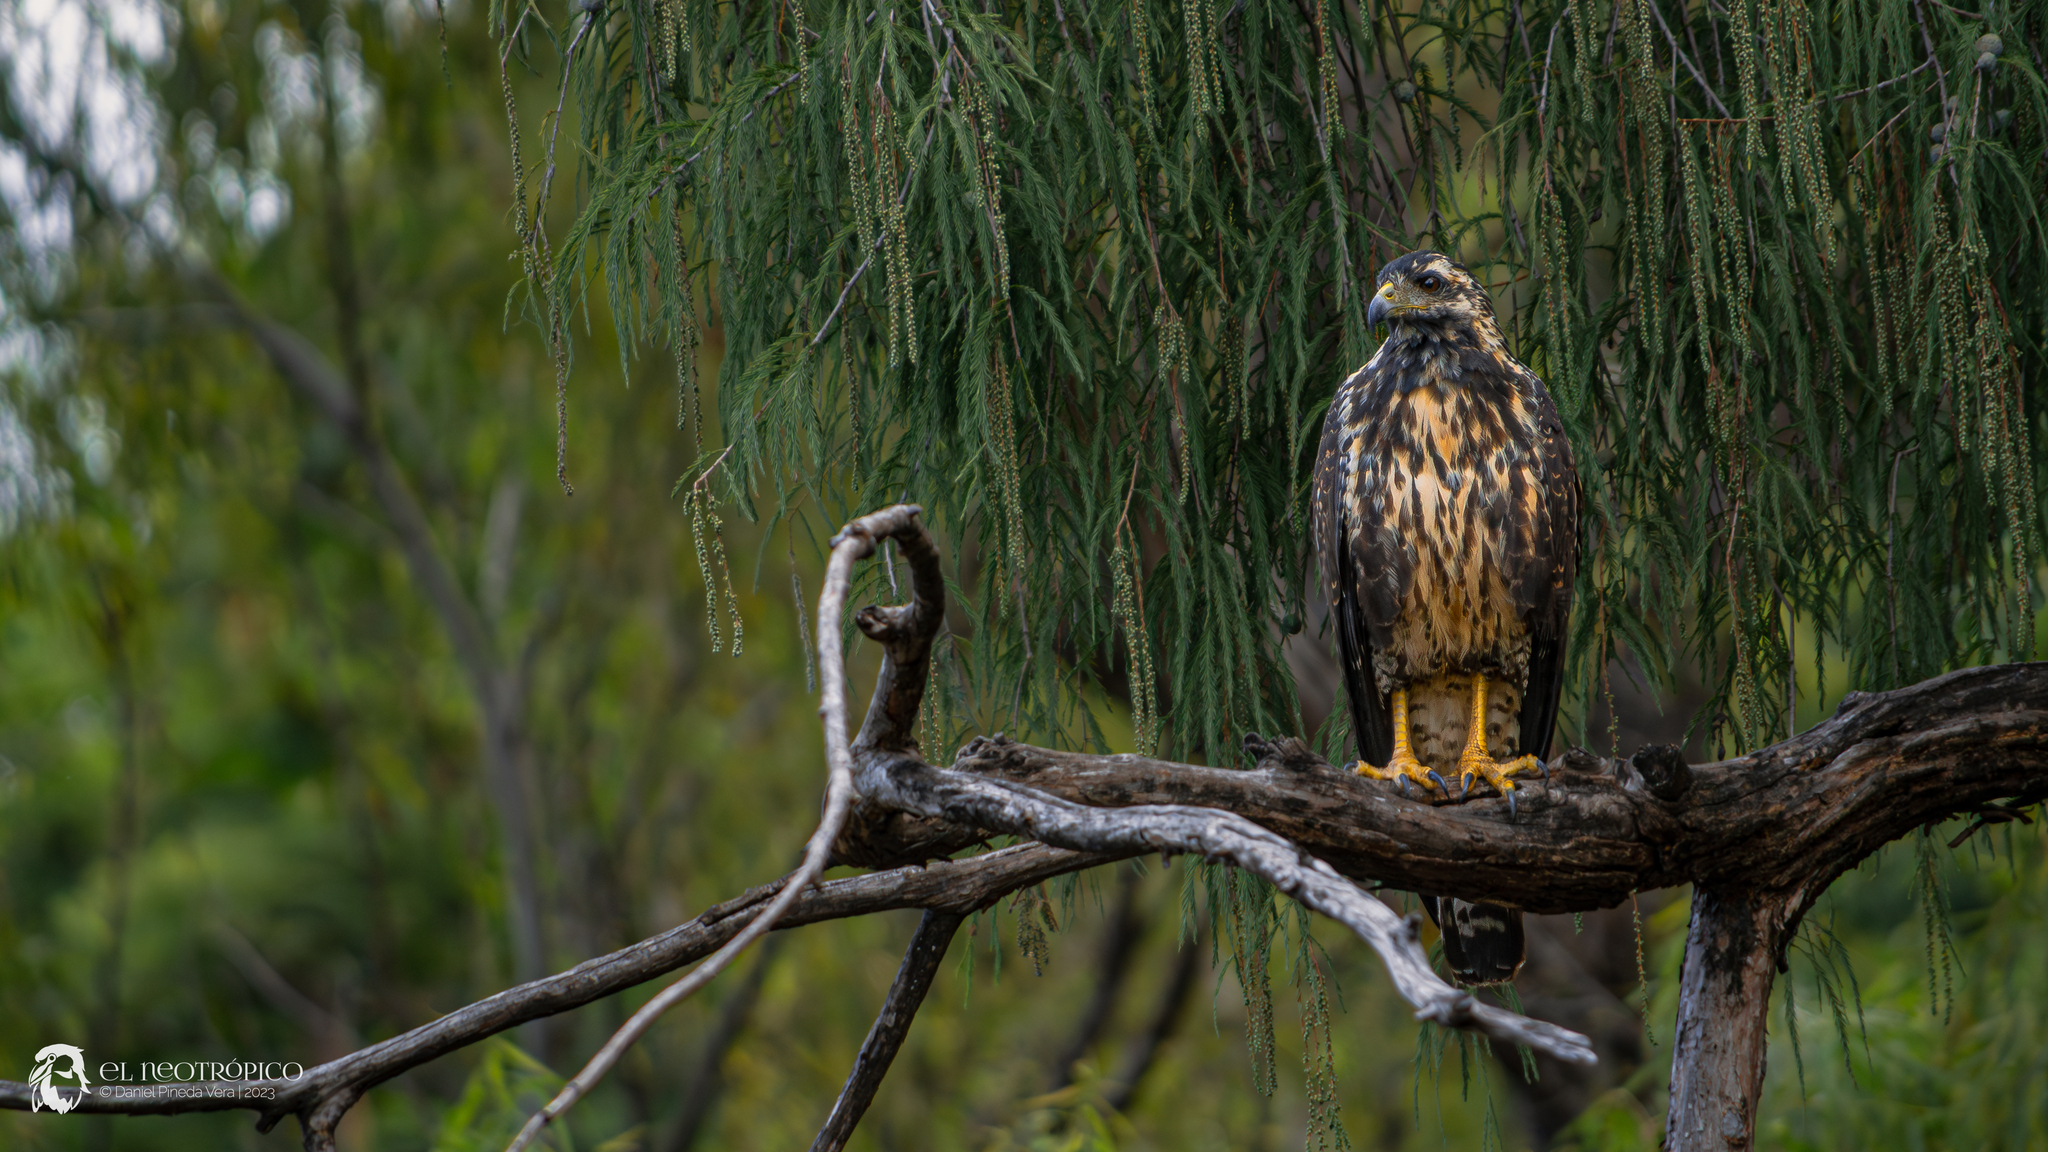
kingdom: Animalia
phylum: Chordata
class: Aves
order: Accipitriformes
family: Accipitridae
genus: Buteogallus
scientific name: Buteogallus anthracinus
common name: Common black hawk
